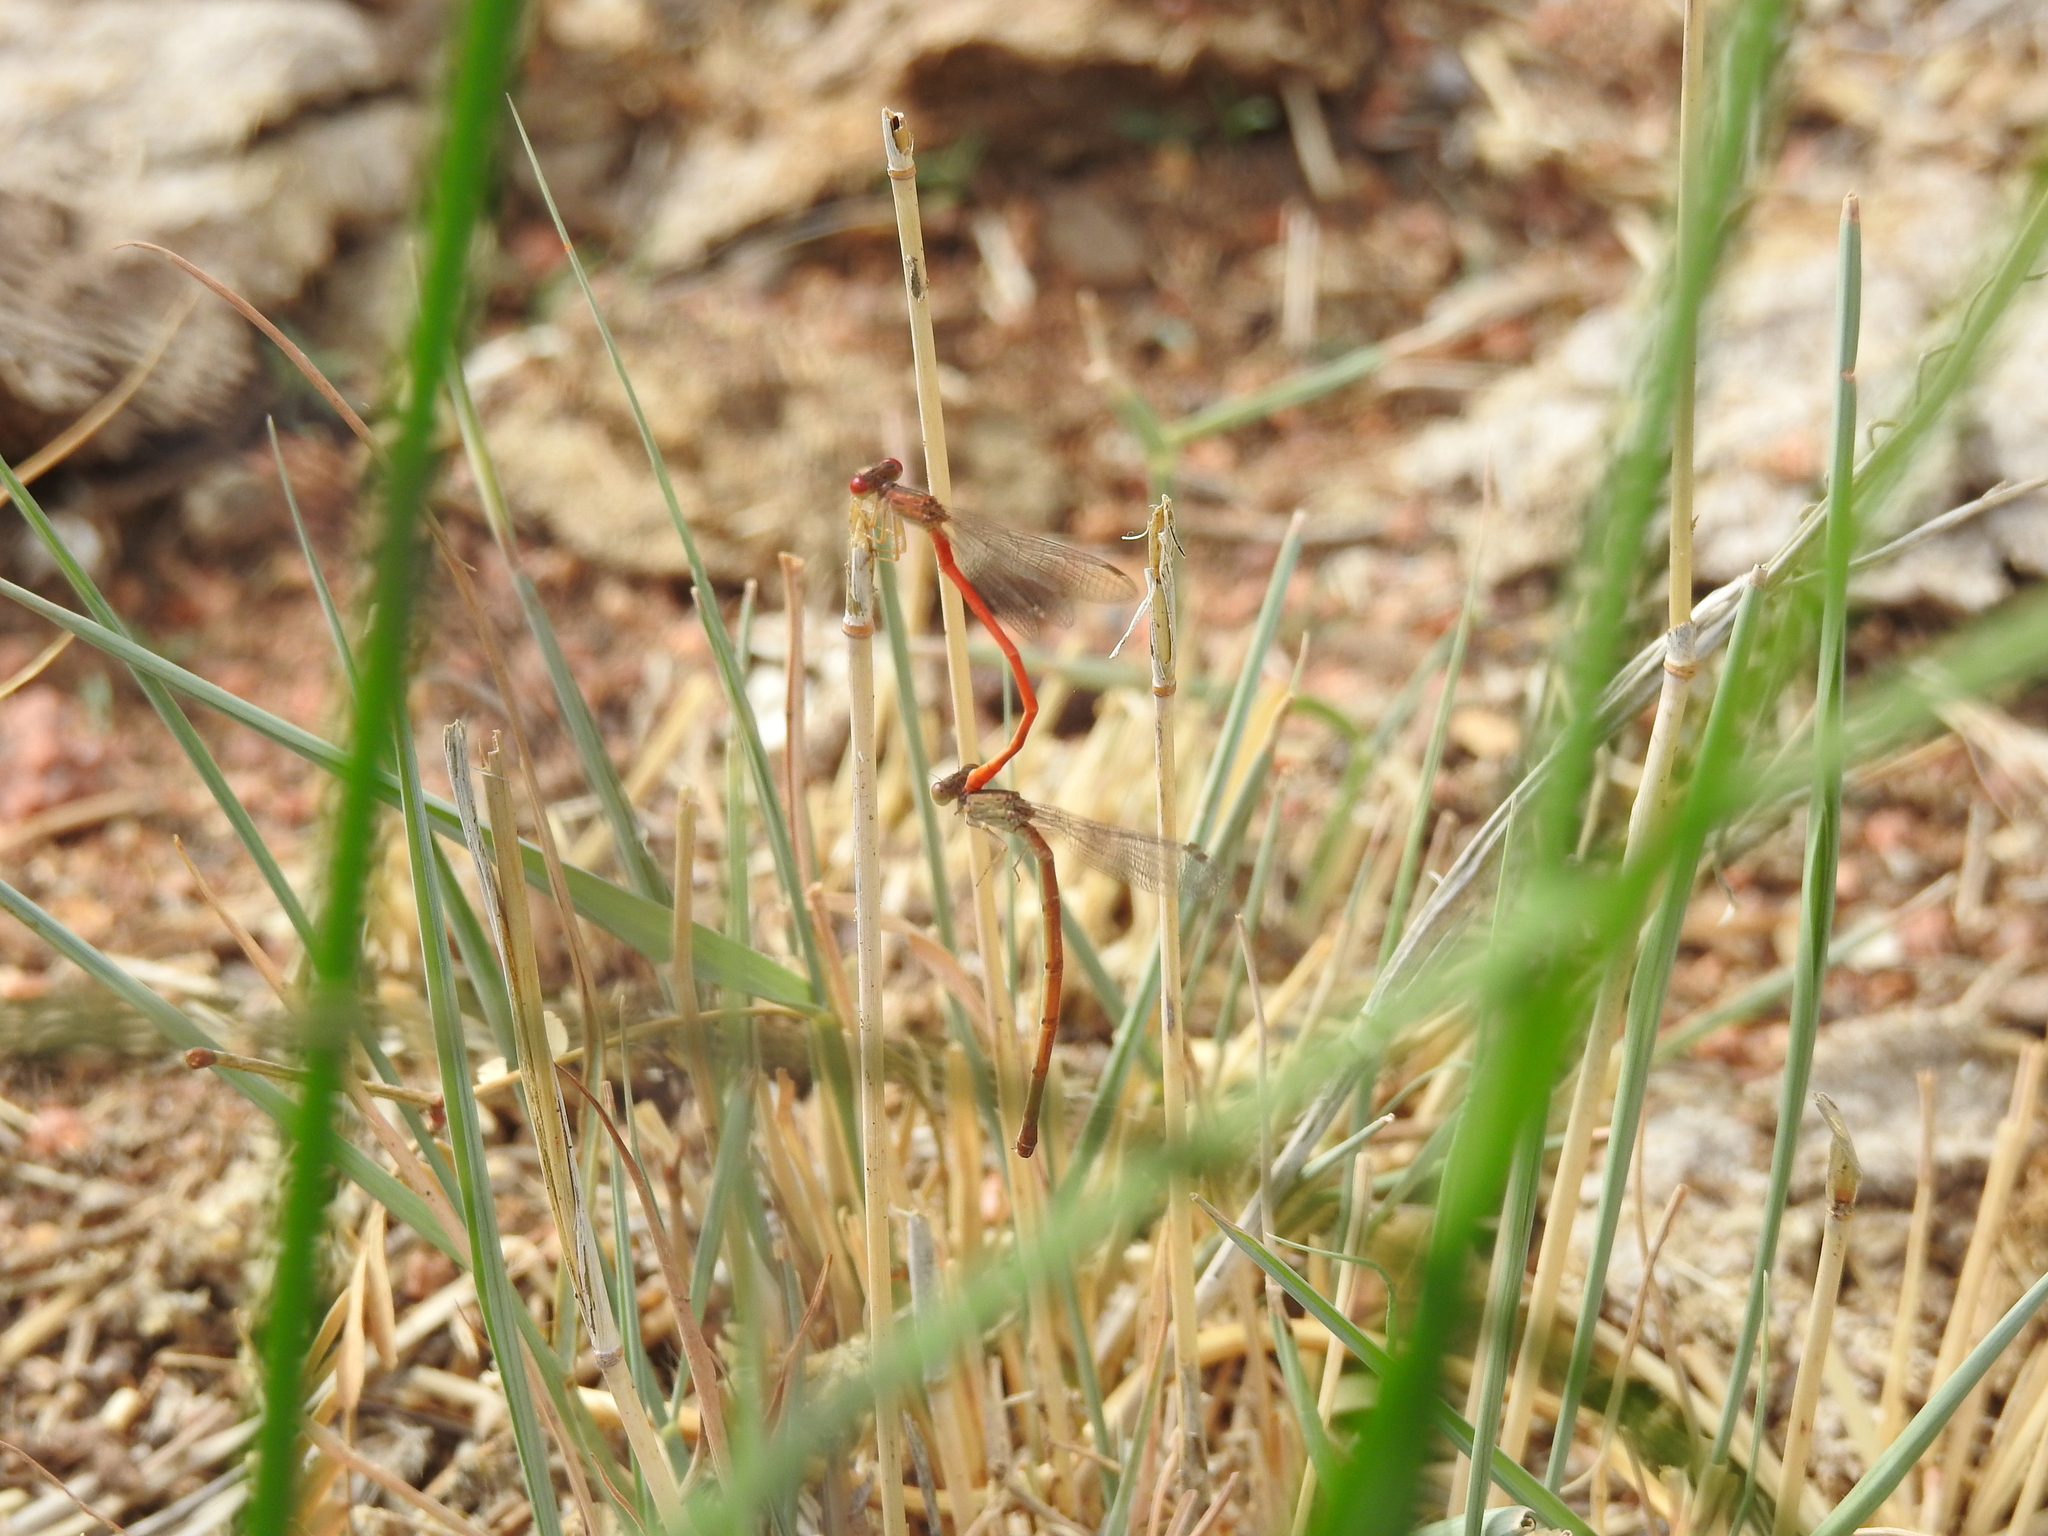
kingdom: Animalia
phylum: Arthropoda
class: Insecta
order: Odonata
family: Coenagrionidae
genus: Telebasis
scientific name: Telebasis salva
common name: Desert firetail
